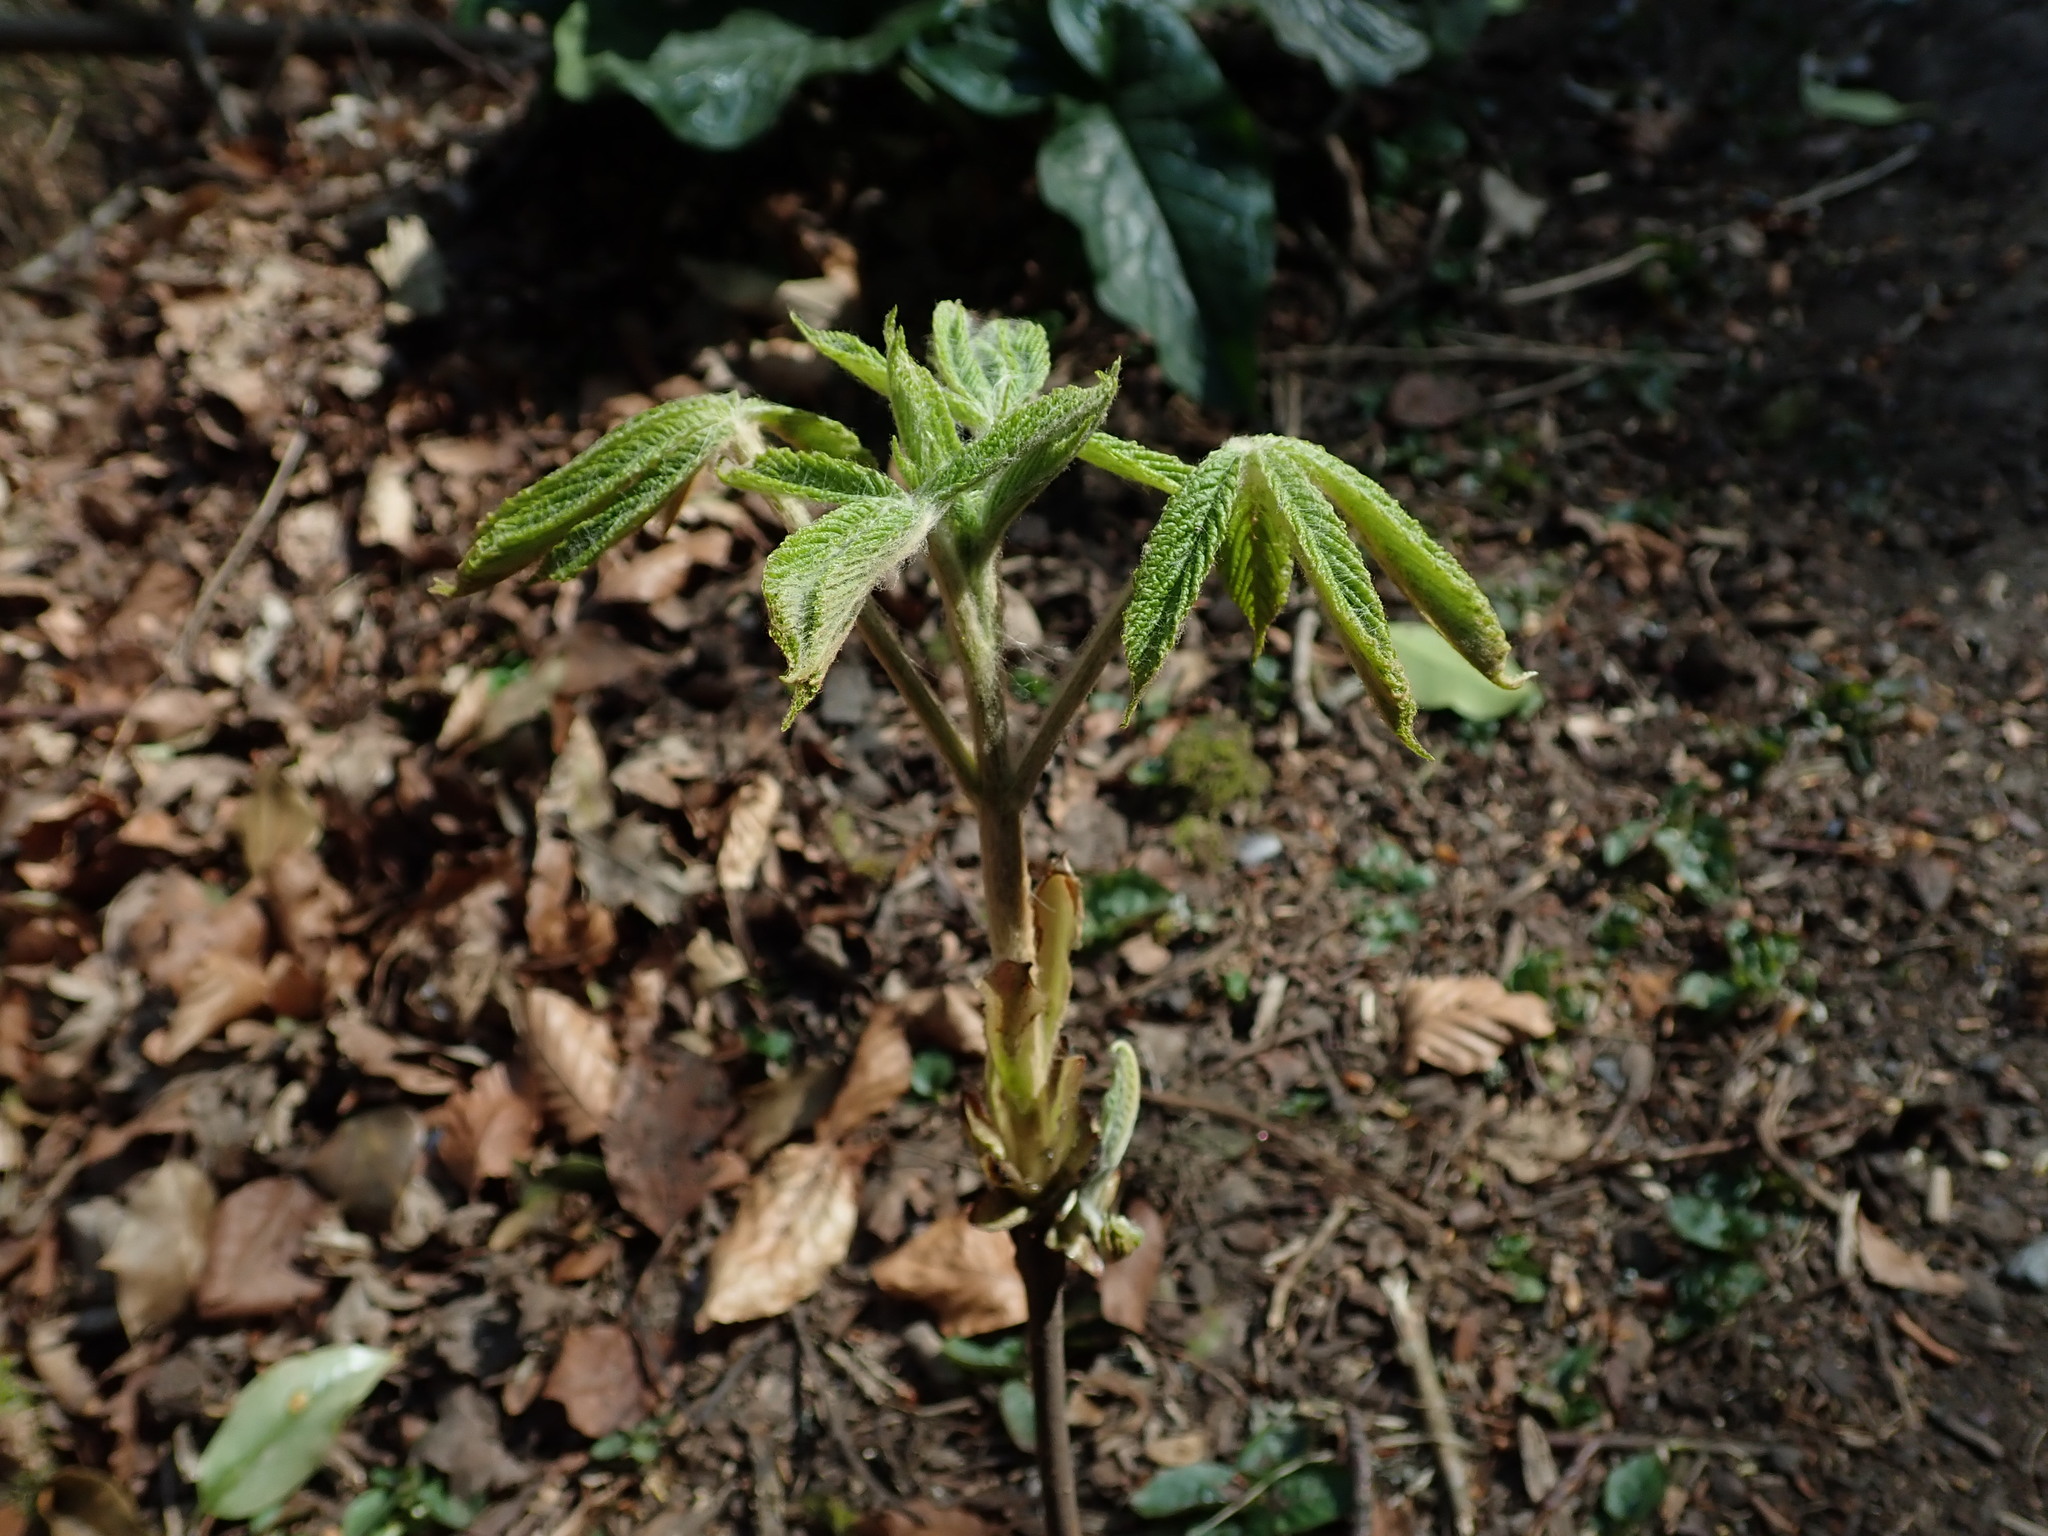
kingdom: Plantae
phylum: Tracheophyta
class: Magnoliopsida
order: Sapindales
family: Sapindaceae
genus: Aesculus
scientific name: Aesculus hippocastanum
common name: Horse-chestnut
